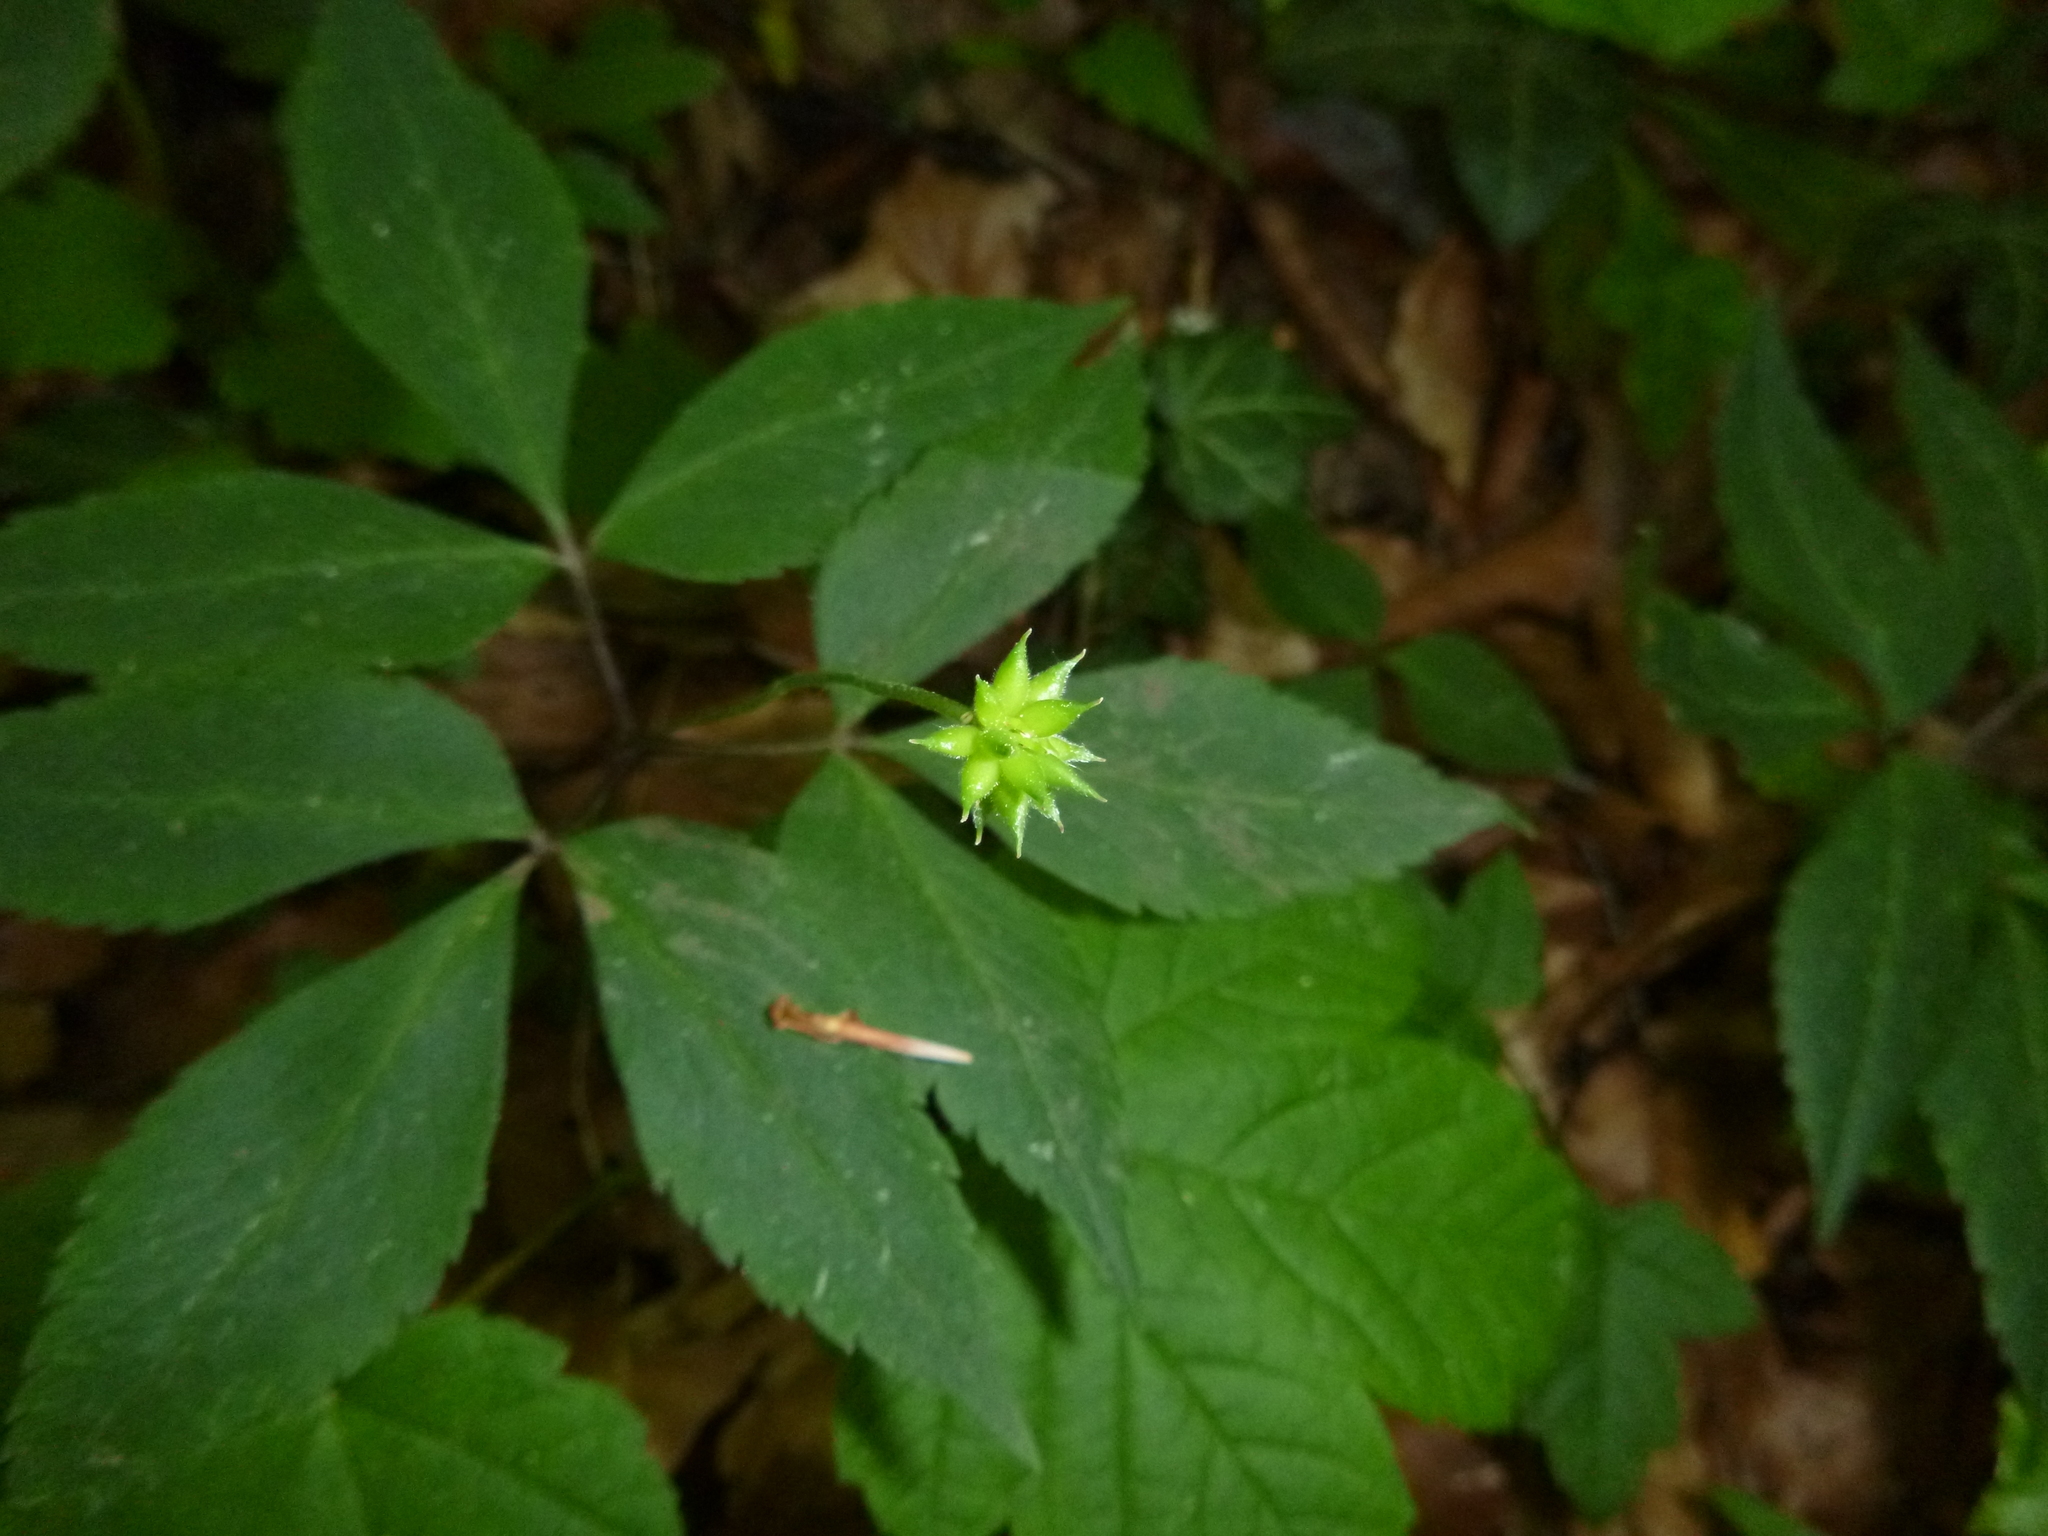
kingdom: Plantae
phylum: Tracheophyta
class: Magnoliopsida
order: Ranunculales
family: Ranunculaceae
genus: Anemone
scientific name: Anemone trifolia
